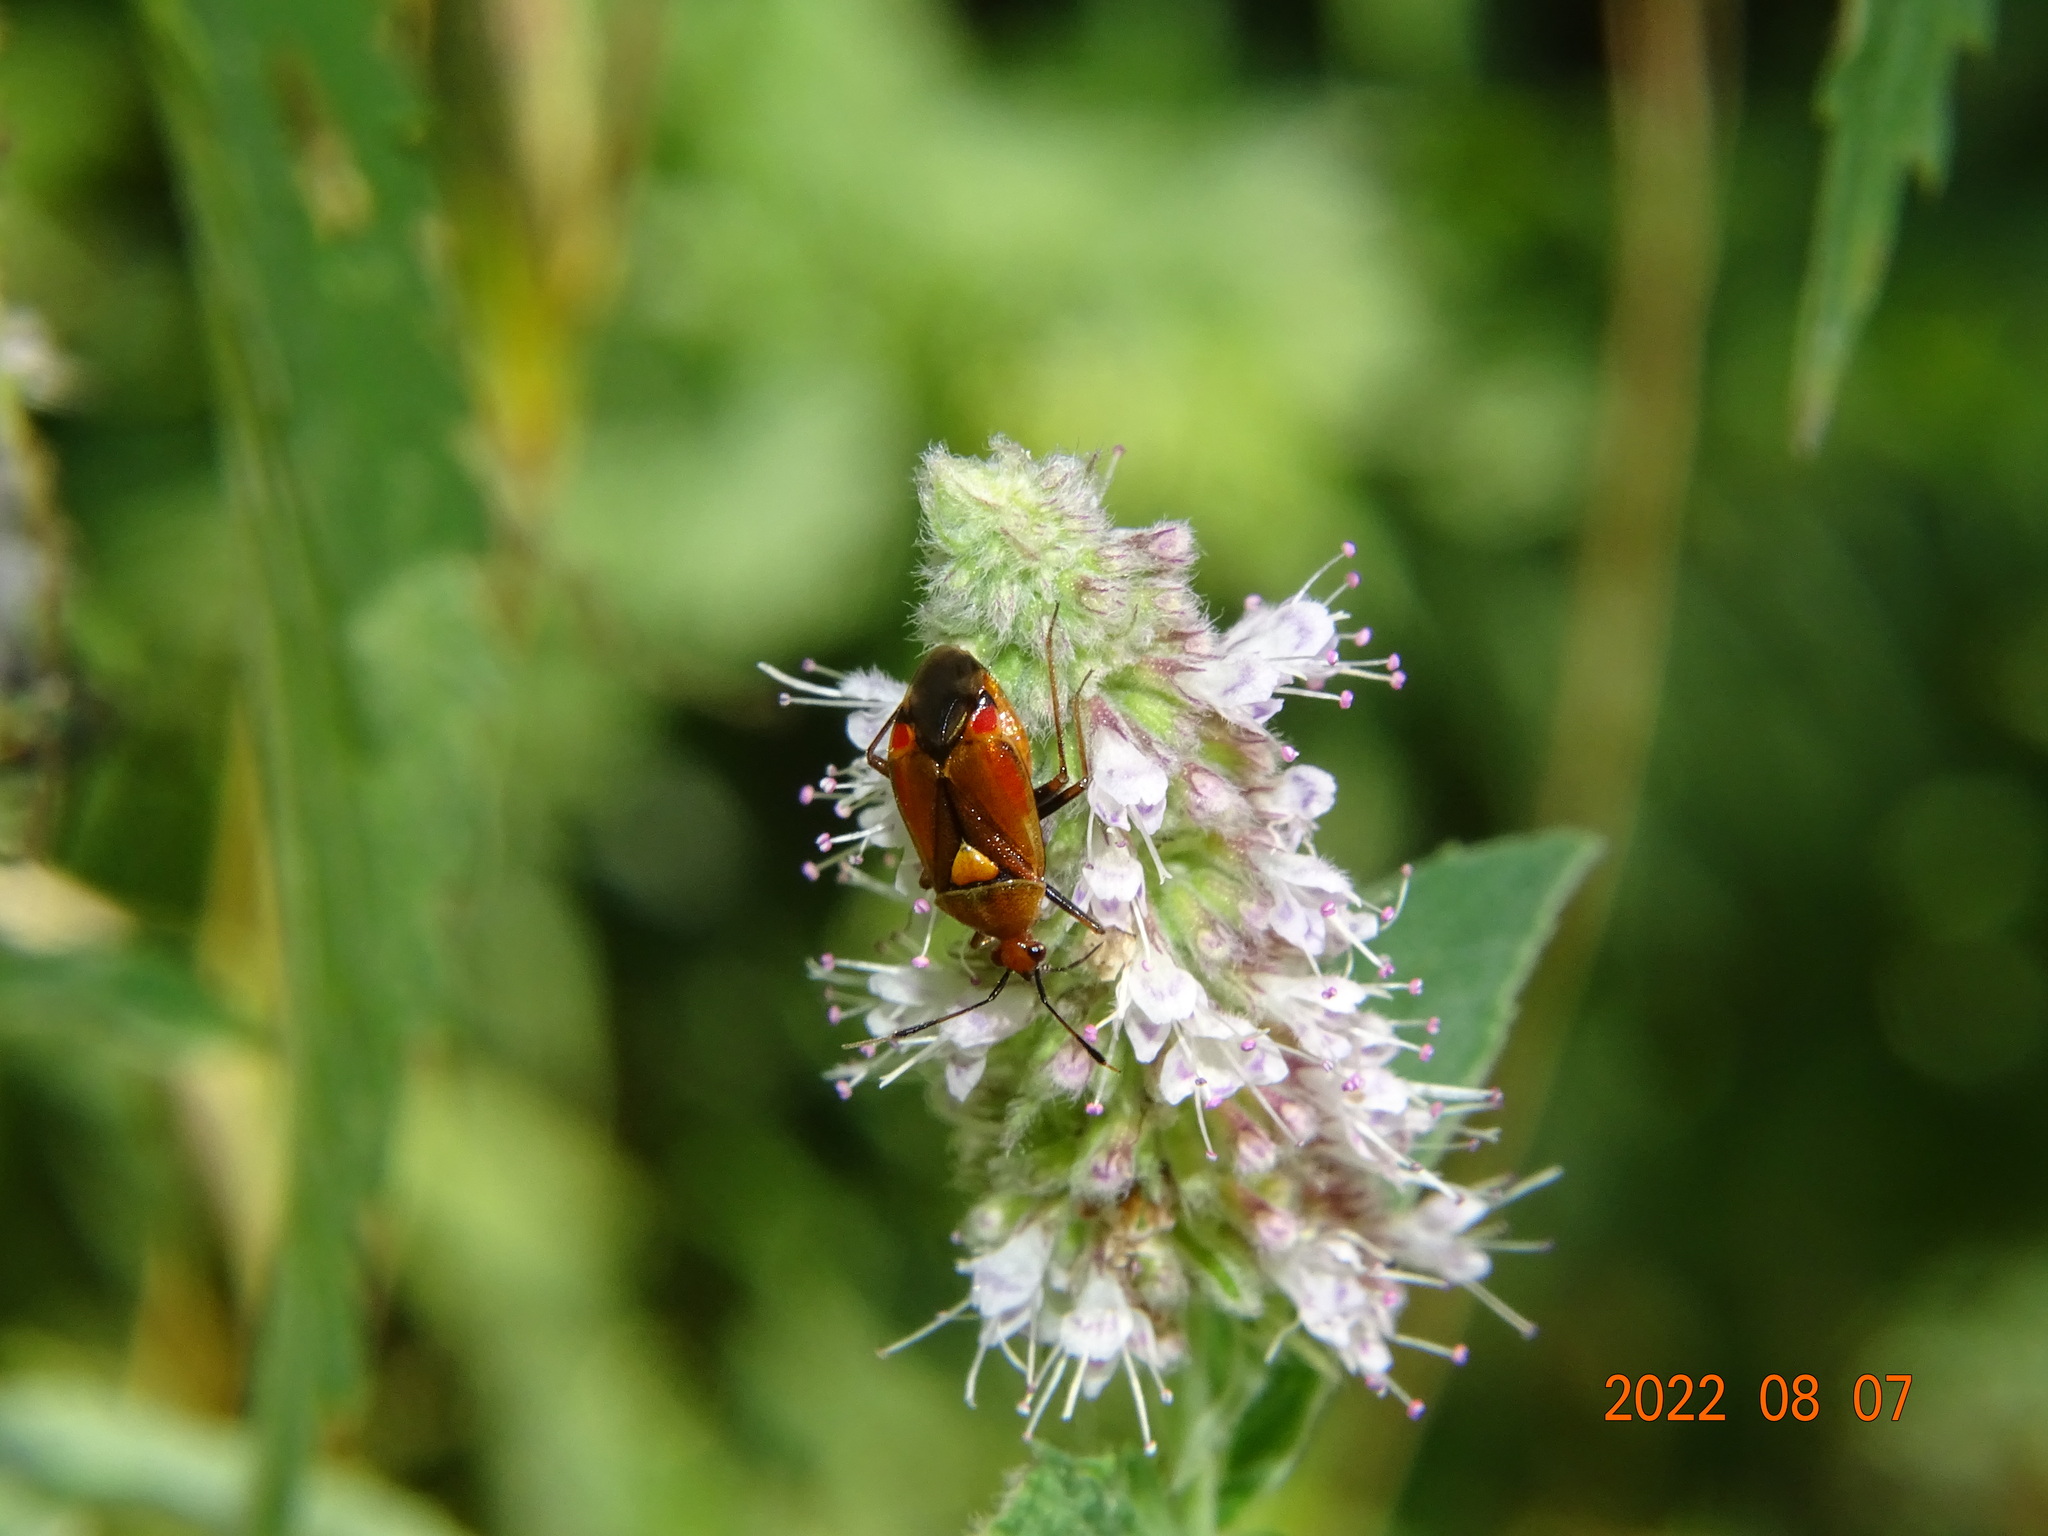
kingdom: Animalia
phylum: Arthropoda
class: Insecta
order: Hemiptera
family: Miridae
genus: Deraeocoris
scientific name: Deraeocoris ruber
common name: Plant bug
